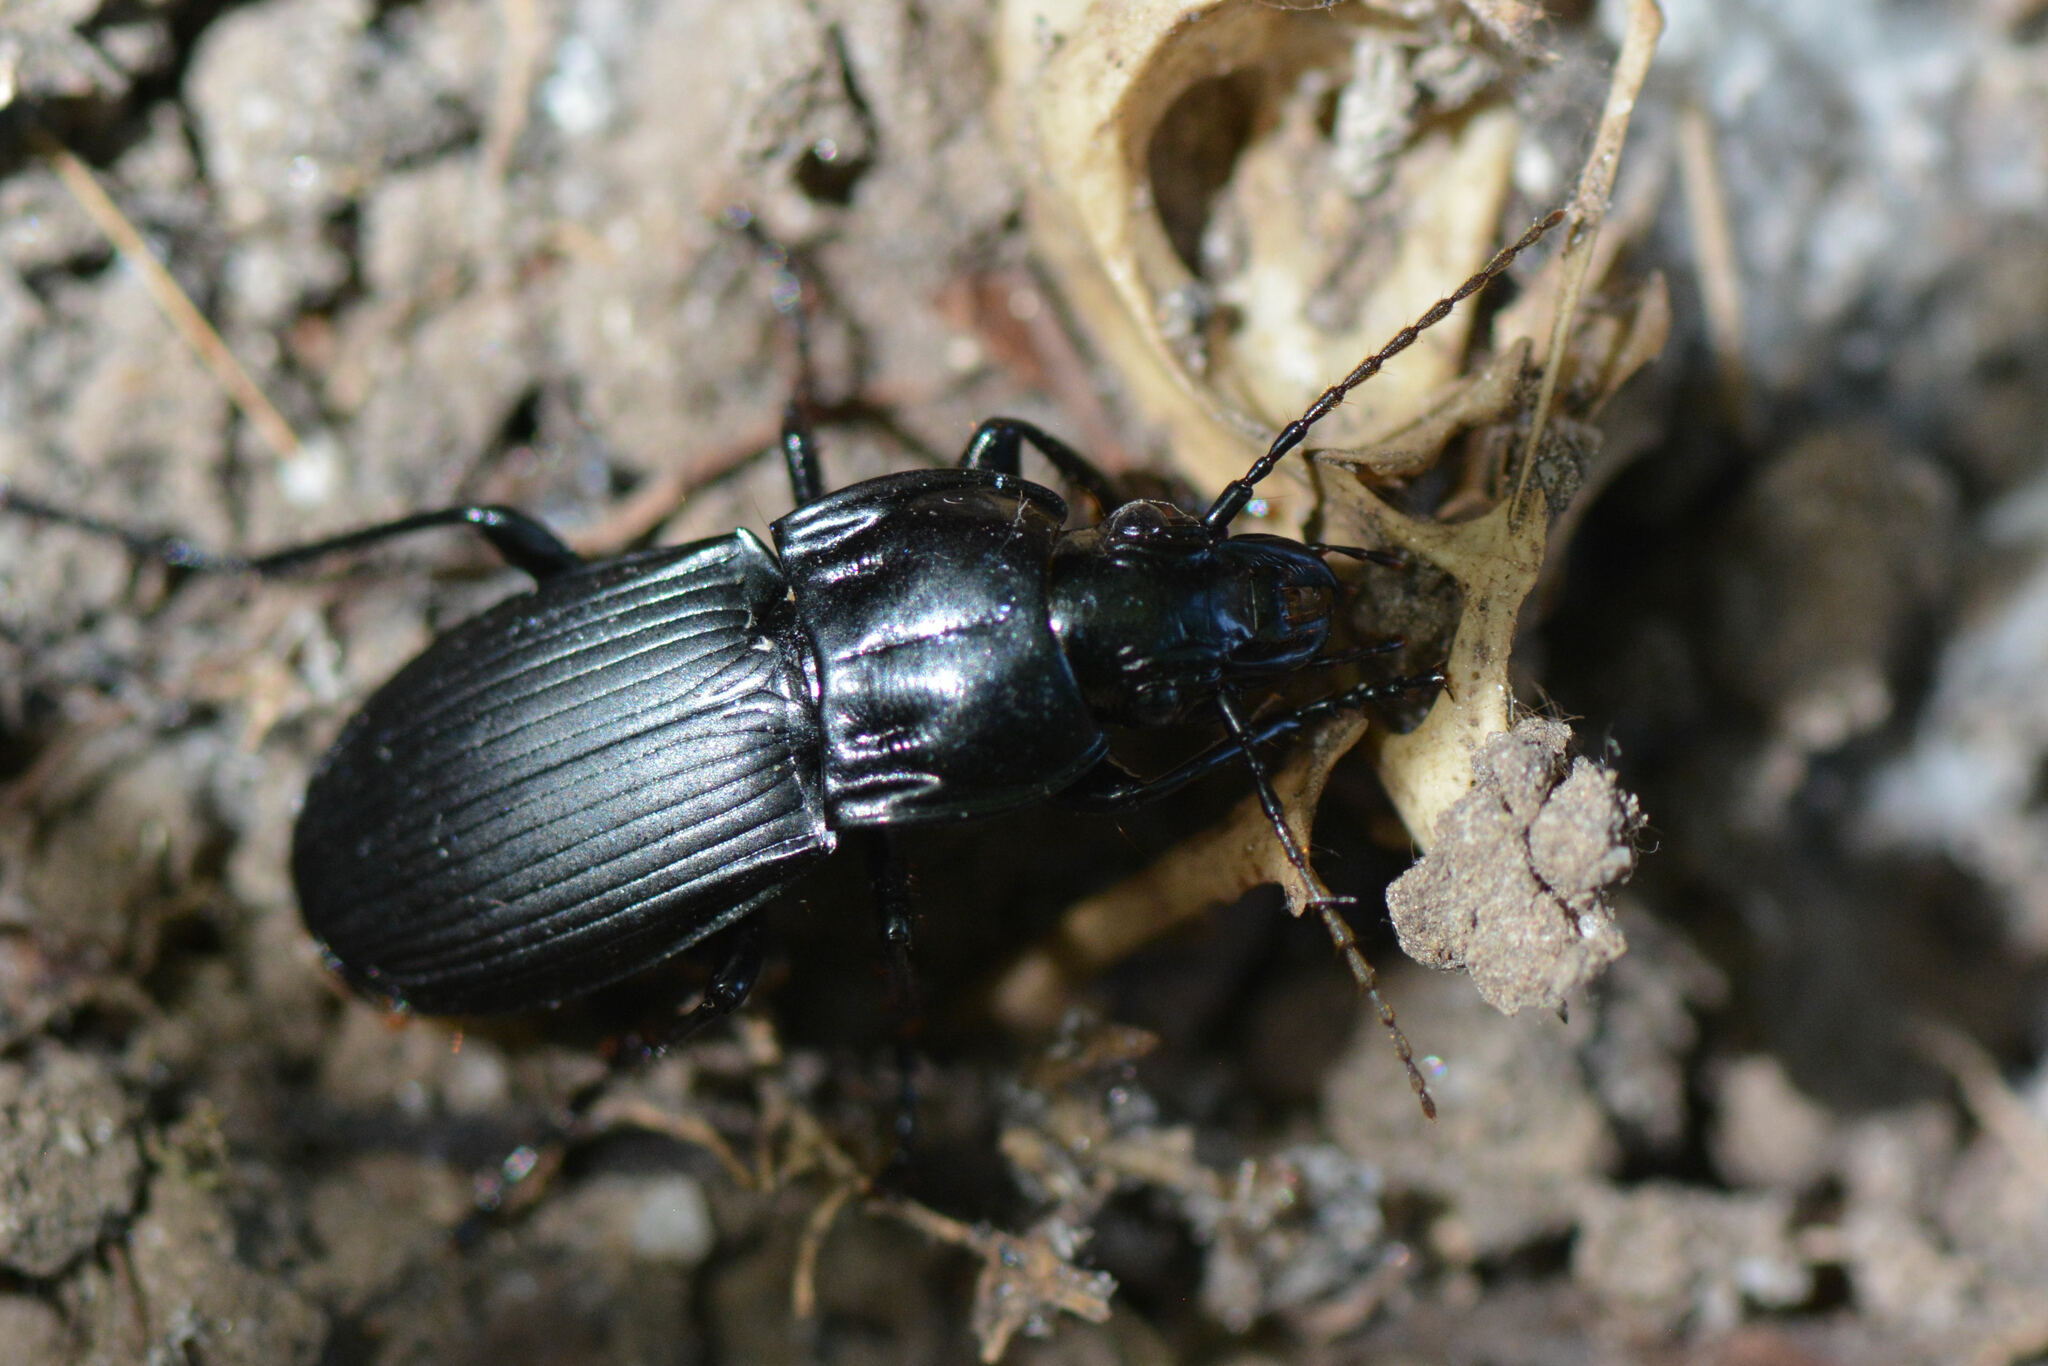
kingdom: Animalia
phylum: Arthropoda
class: Insecta
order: Coleoptera
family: Carabidae
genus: Abax
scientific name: Abax parallelepipedus
